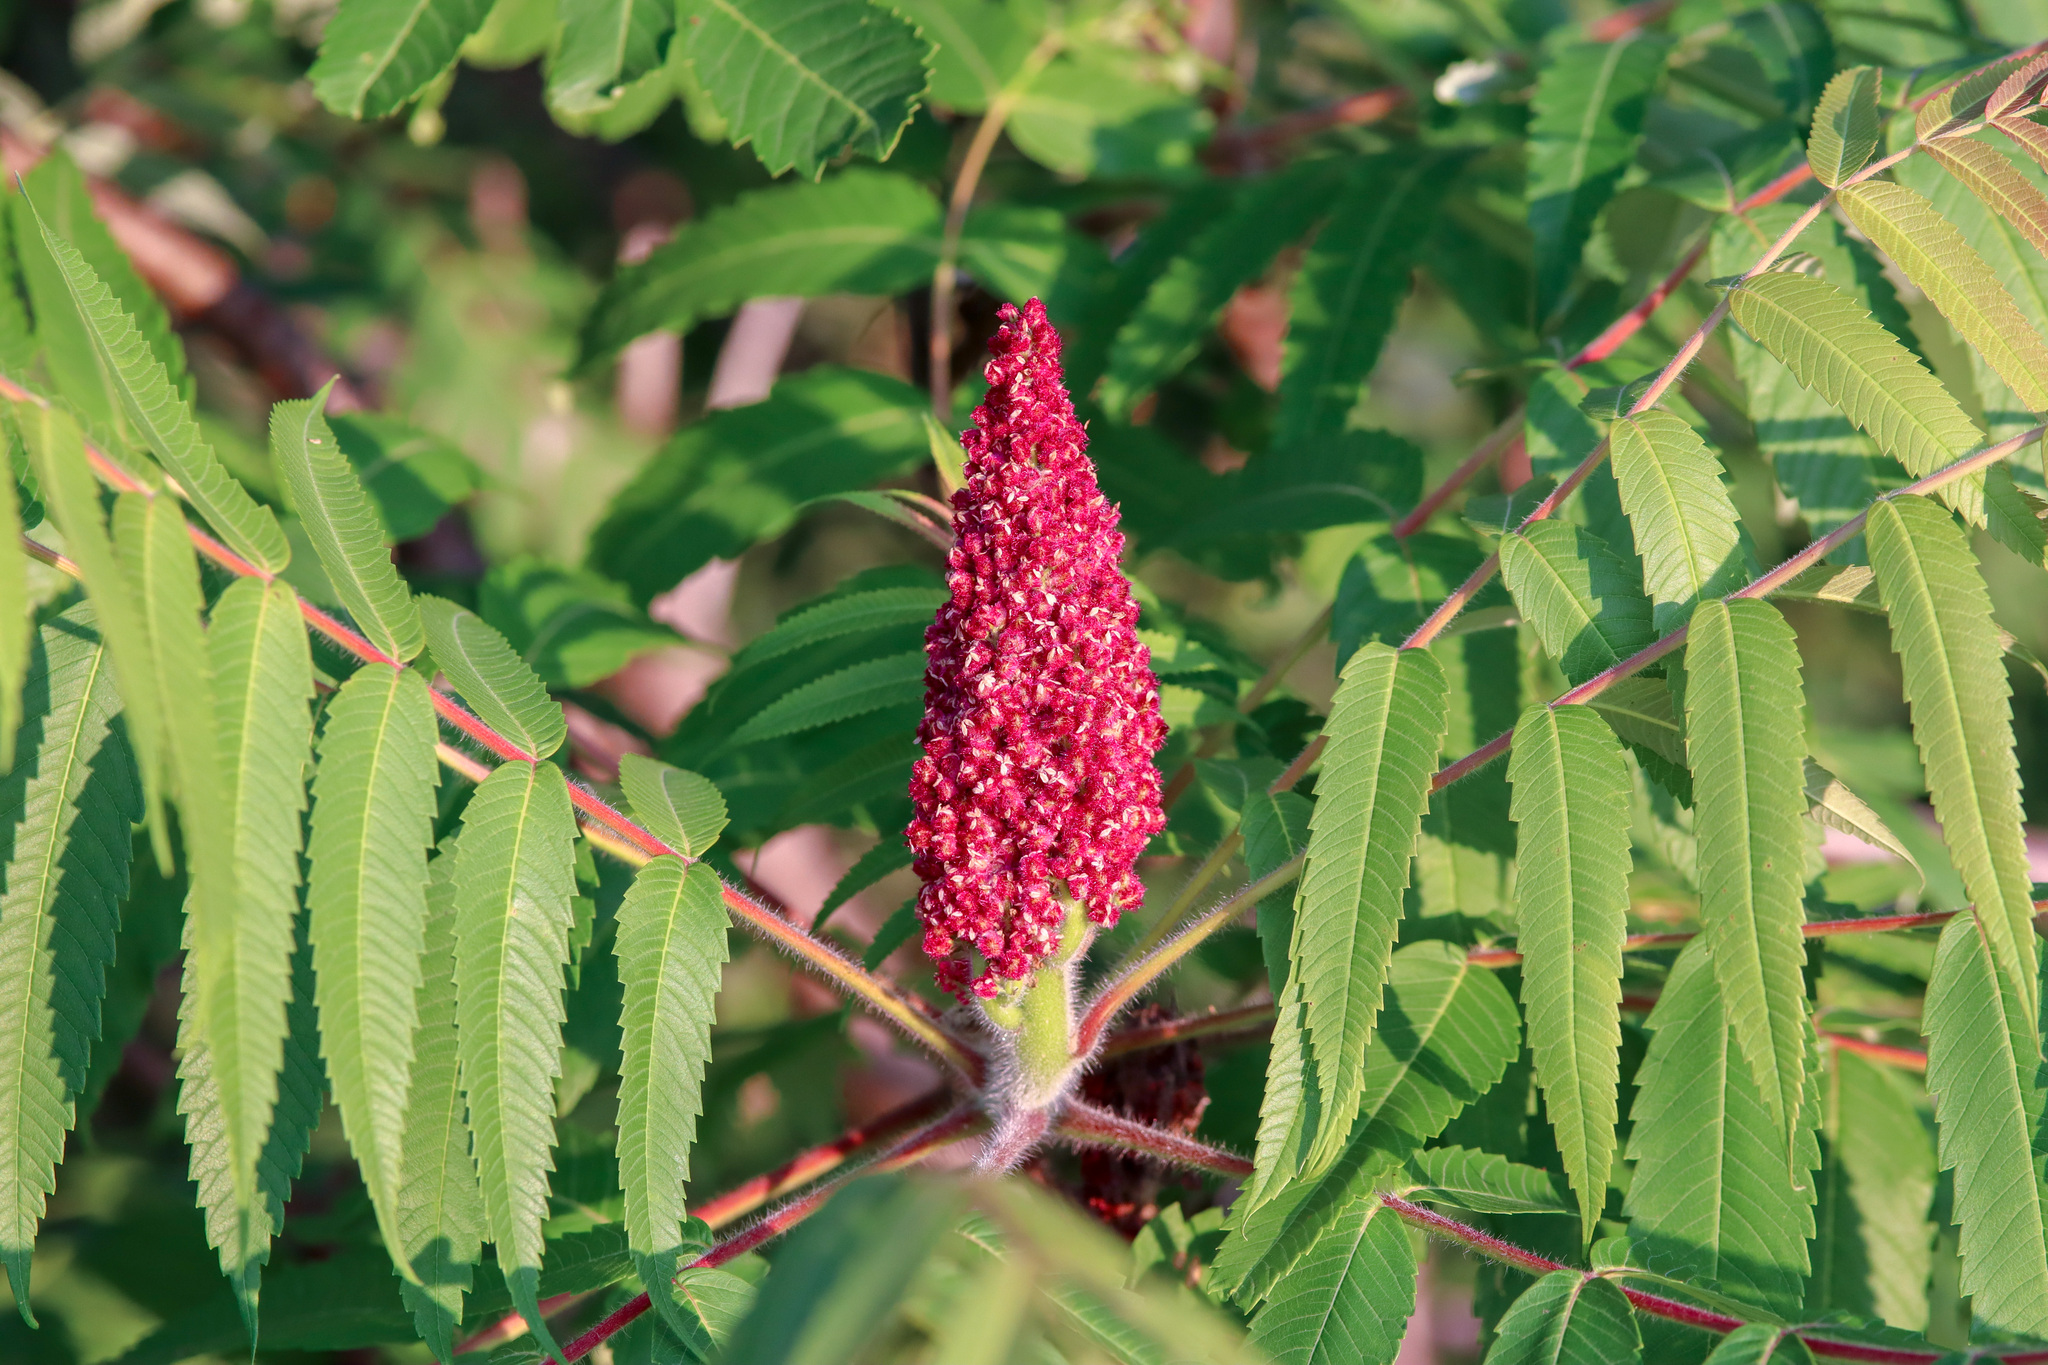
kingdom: Plantae
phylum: Tracheophyta
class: Magnoliopsida
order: Sapindales
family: Anacardiaceae
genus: Rhus
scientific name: Rhus typhina
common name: Staghorn sumac
